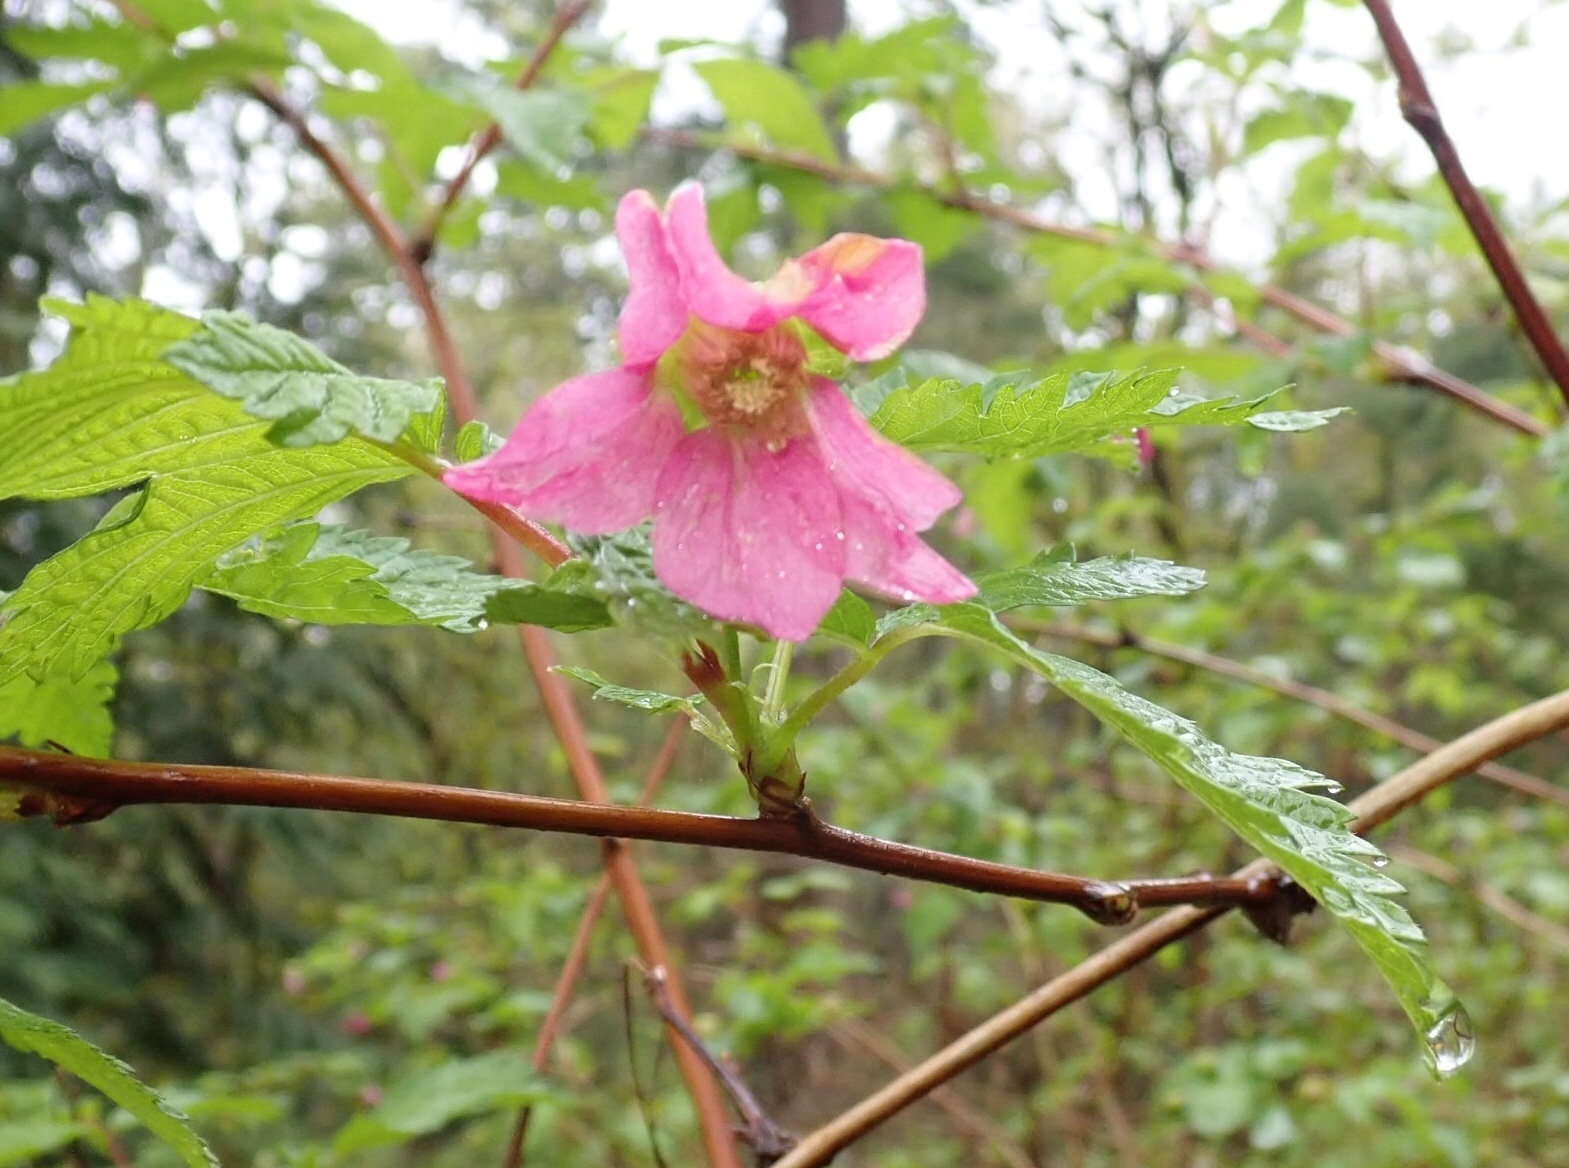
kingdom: Plantae
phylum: Tracheophyta
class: Magnoliopsida
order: Rosales
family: Rosaceae
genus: Rubus
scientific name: Rubus spectabilis
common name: Salmonberry
